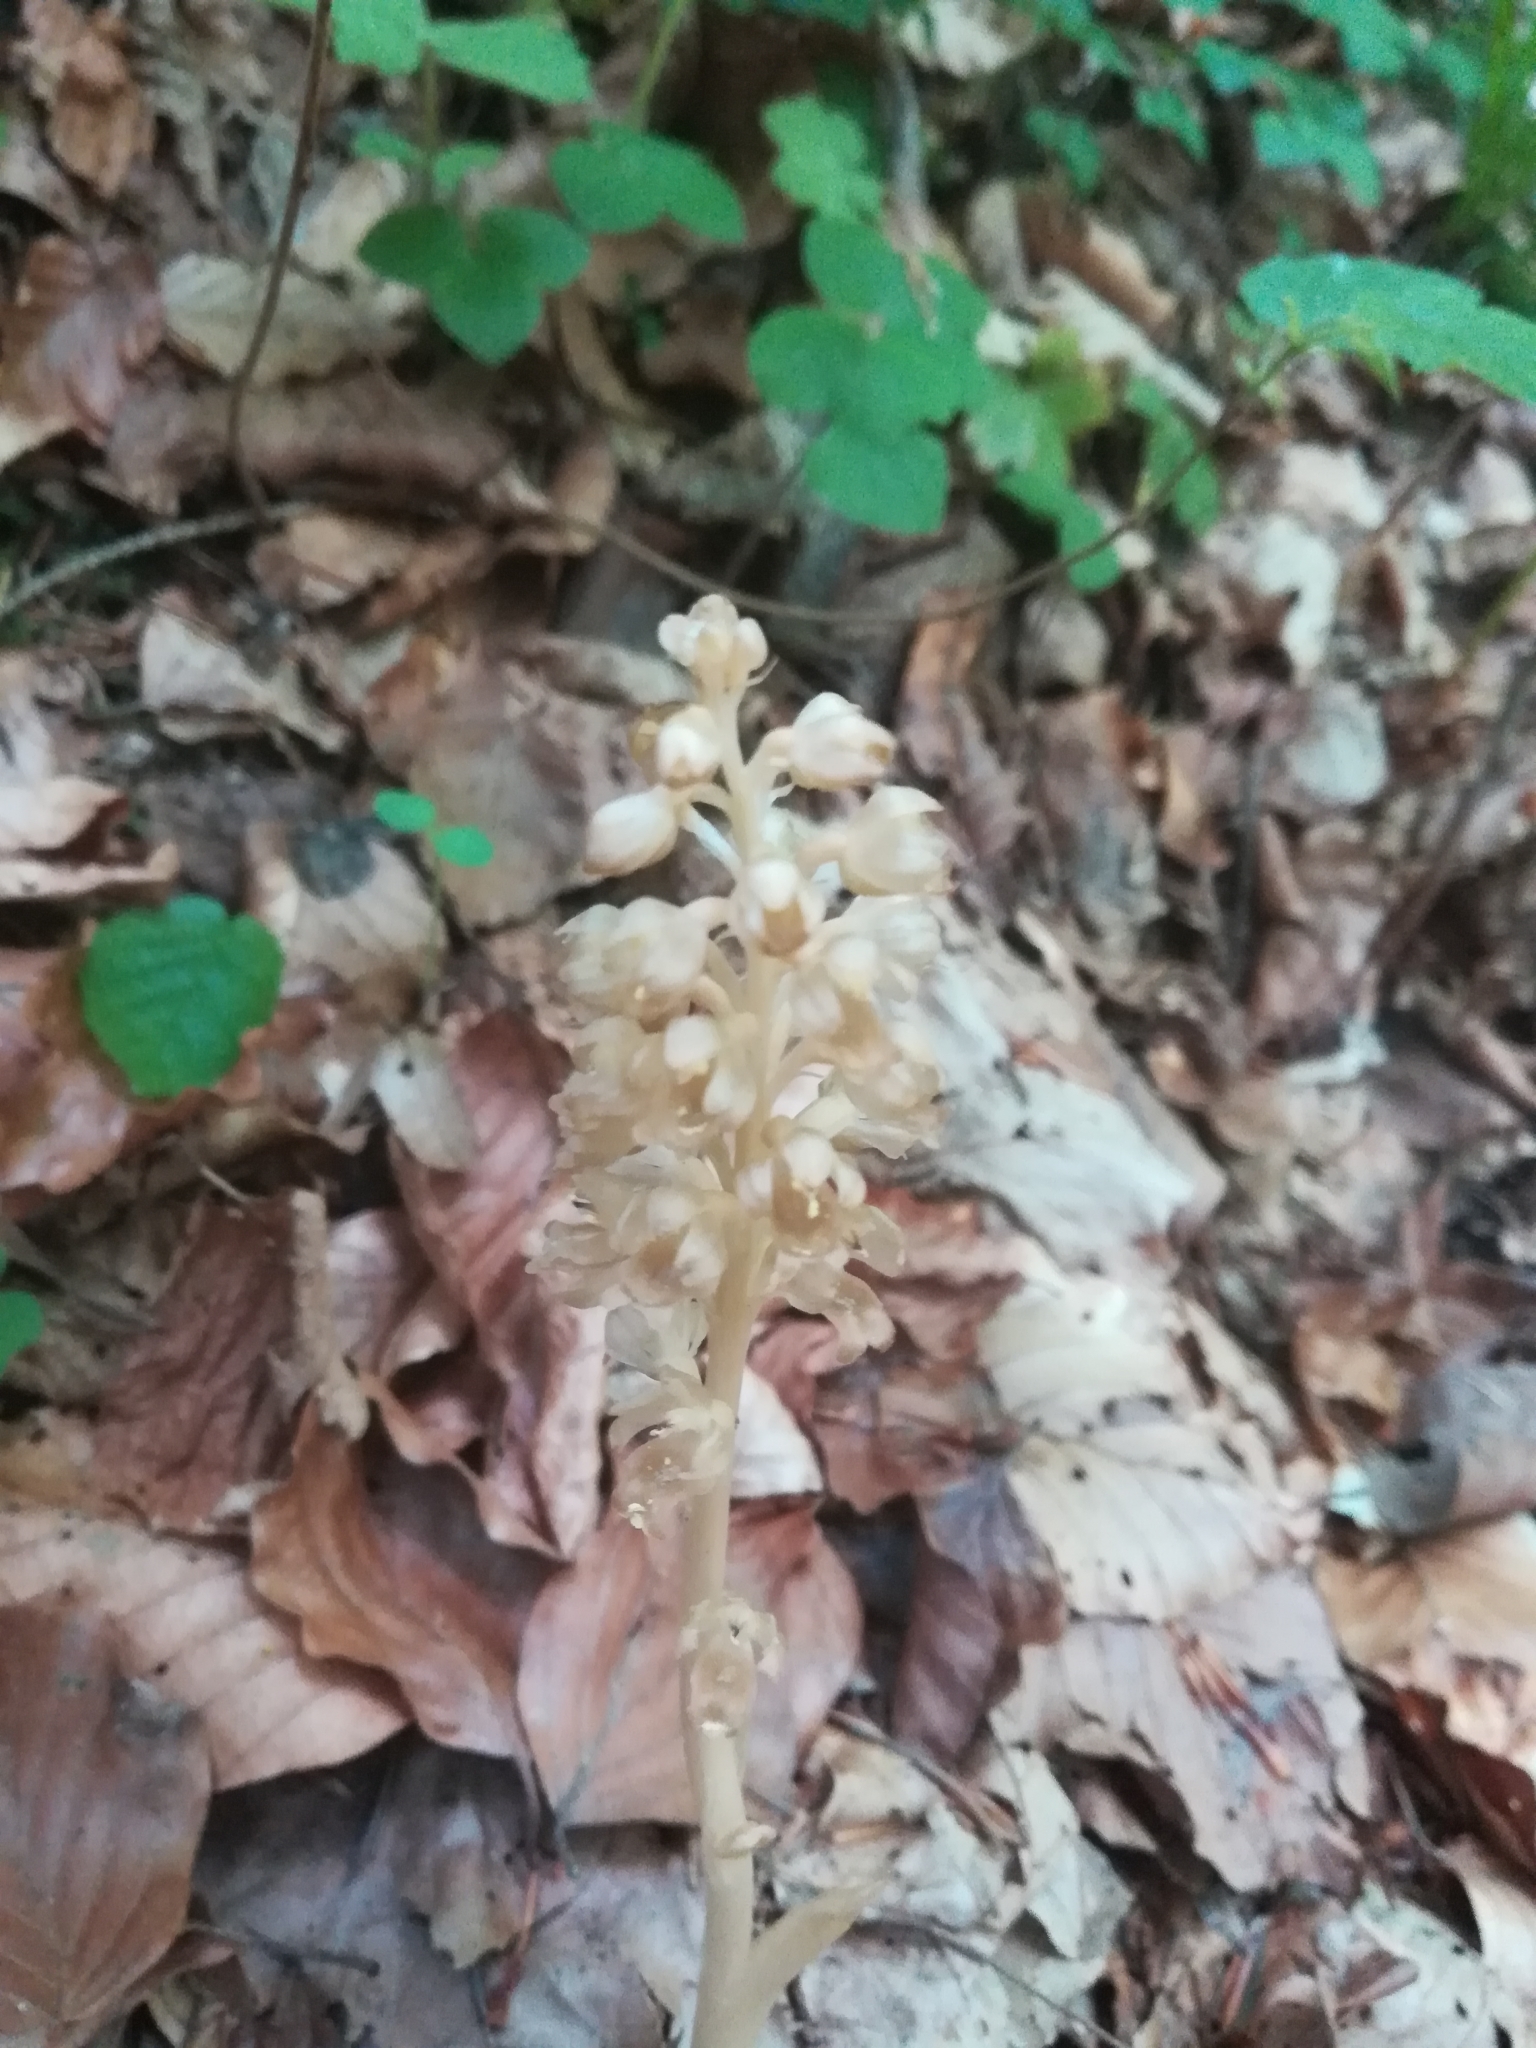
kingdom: Plantae
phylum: Tracheophyta
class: Liliopsida
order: Asparagales
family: Orchidaceae
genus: Neottia
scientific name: Neottia nidus-avis
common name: Bird's-nest orchid
